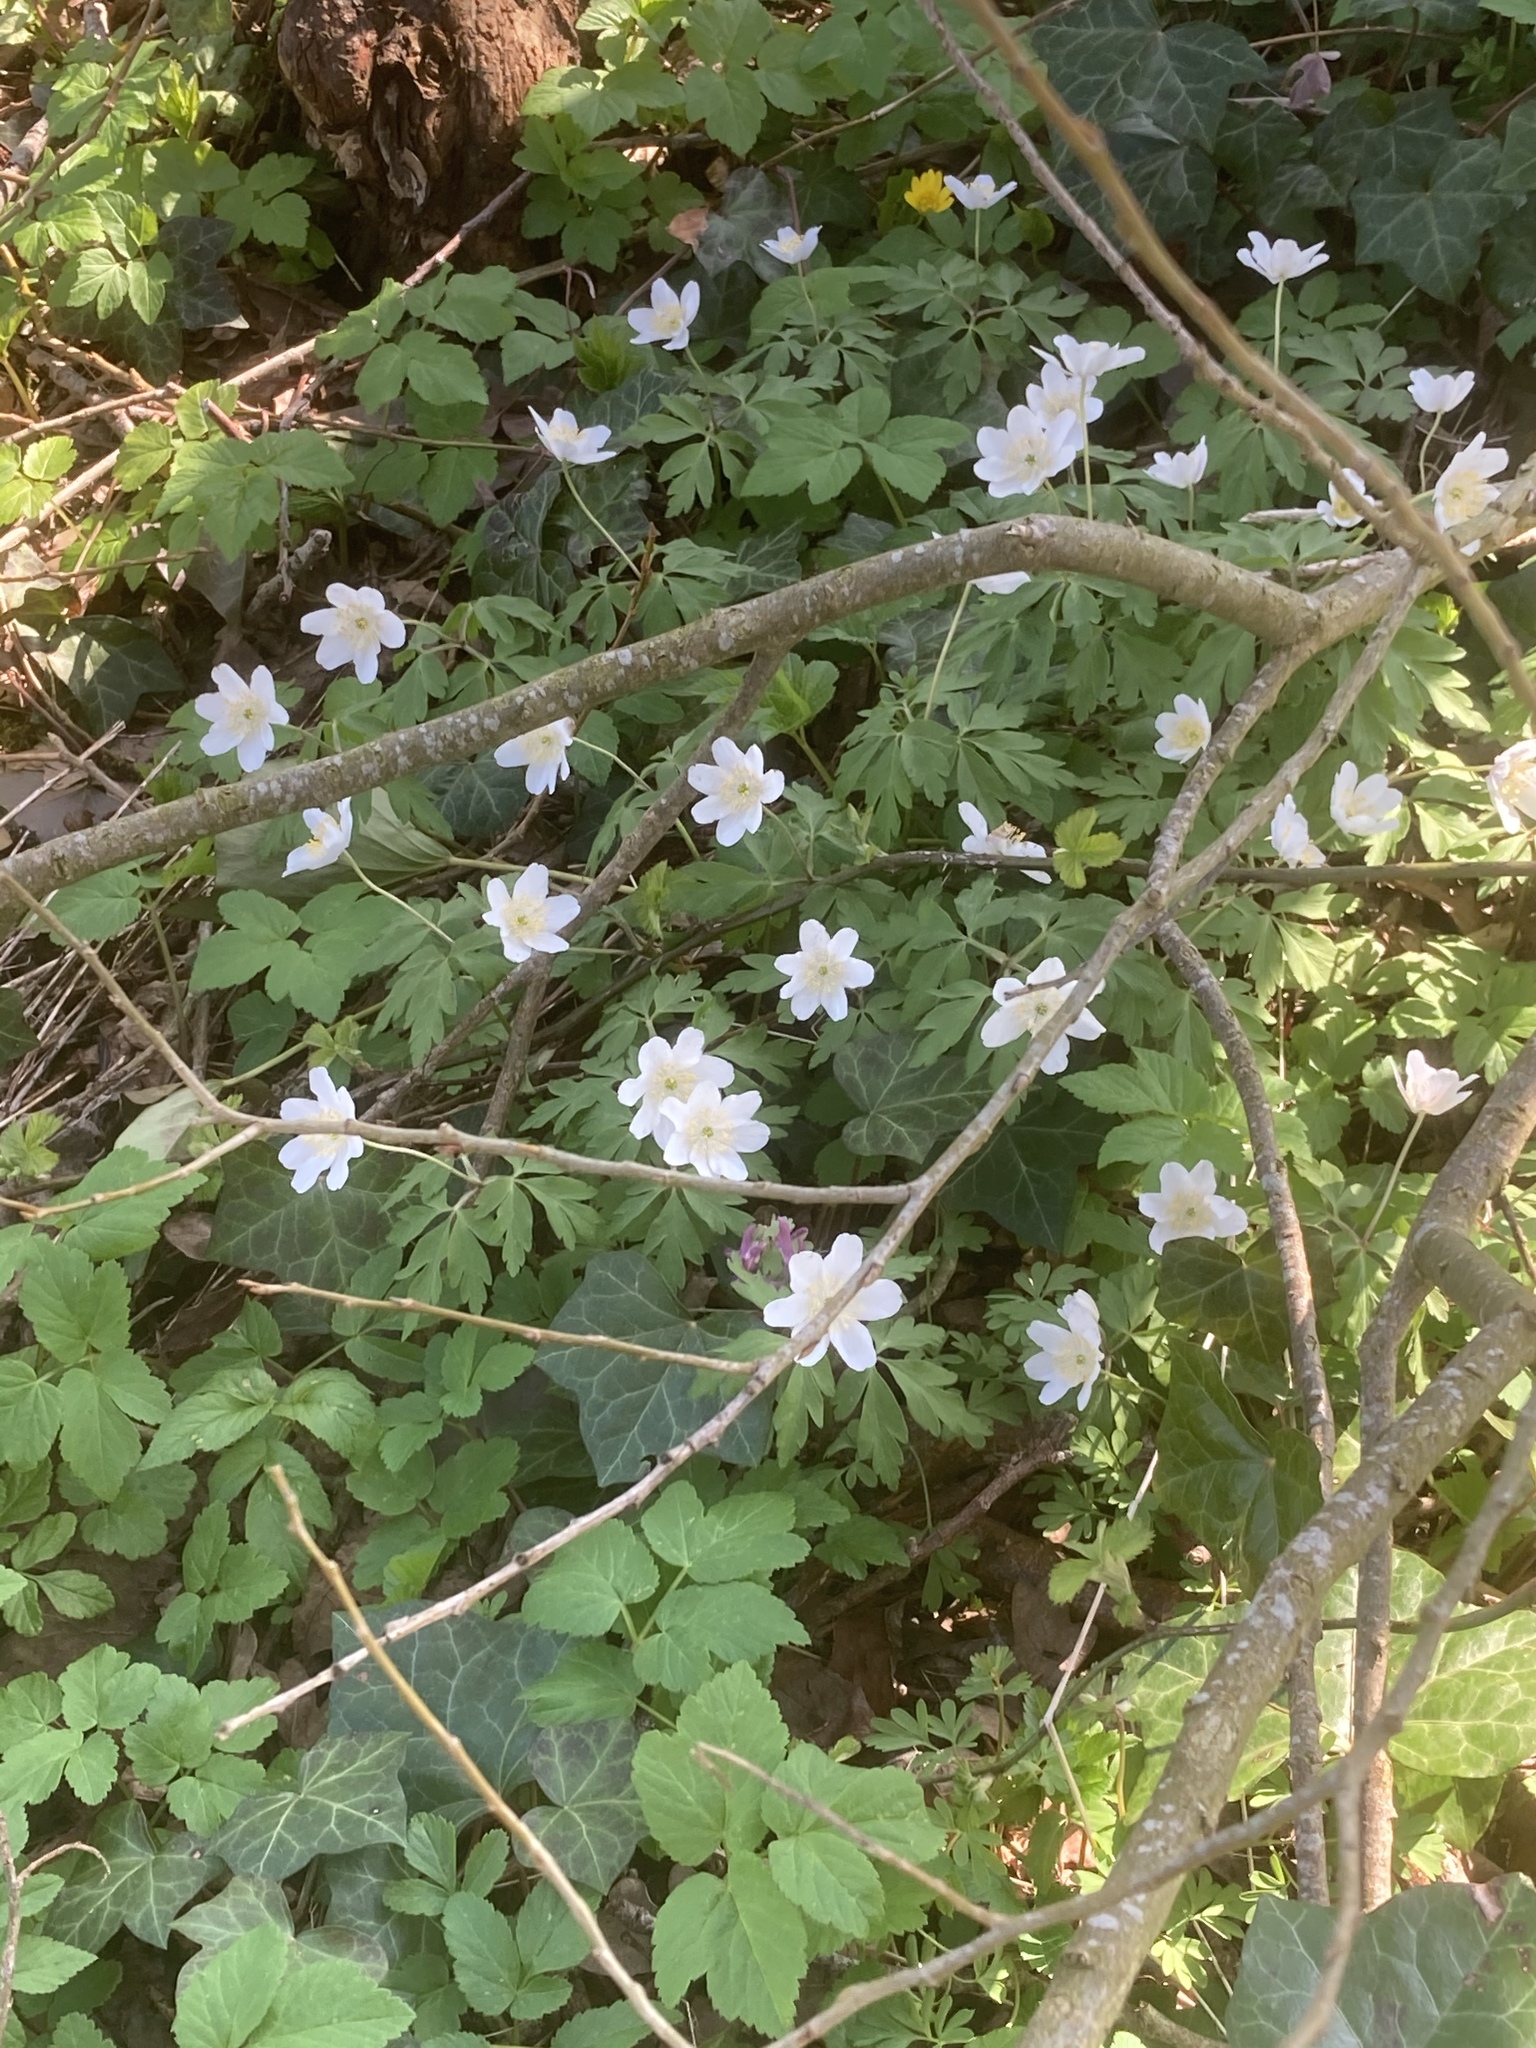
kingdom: Plantae
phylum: Tracheophyta
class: Magnoliopsida
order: Ranunculales
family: Ranunculaceae
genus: Anemone
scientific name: Anemone nemorosa
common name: Wood anemone
